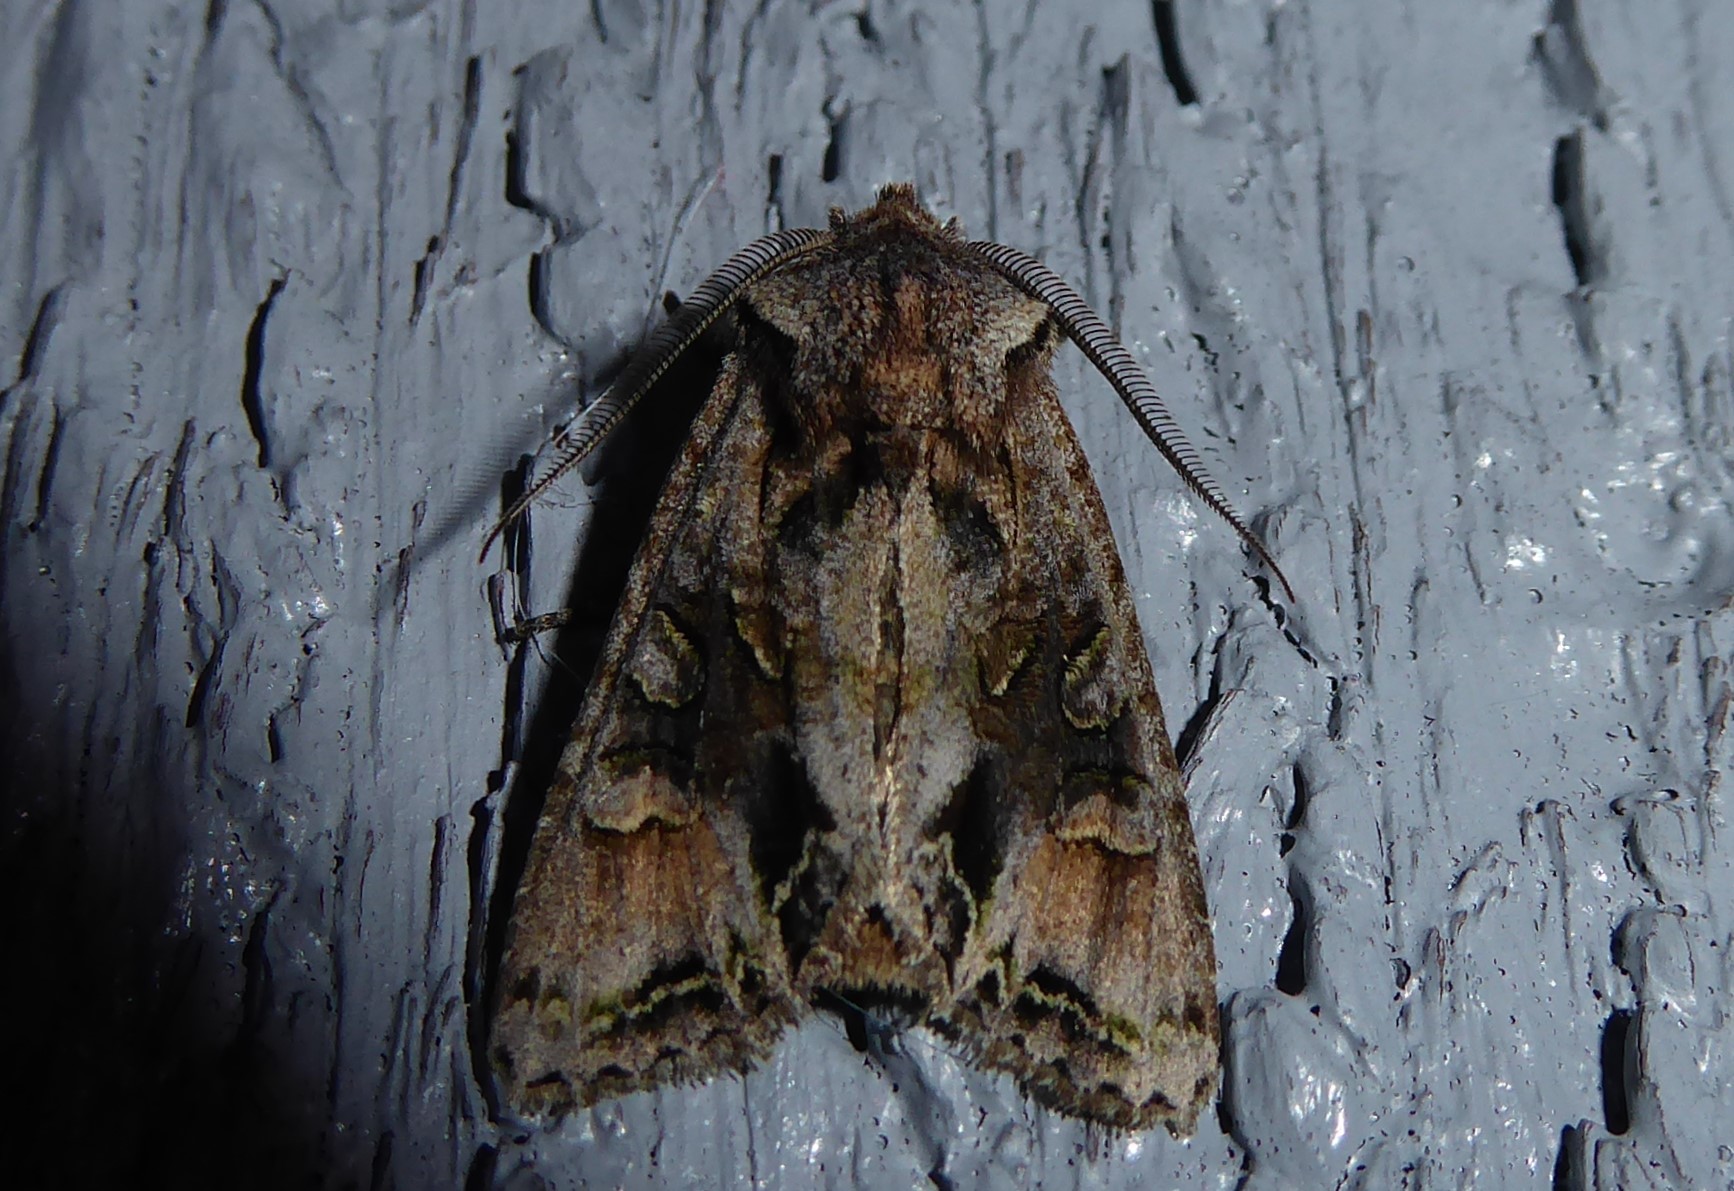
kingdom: Animalia
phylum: Arthropoda
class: Insecta
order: Lepidoptera
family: Noctuidae
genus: Ichneutica
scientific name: Ichneutica
